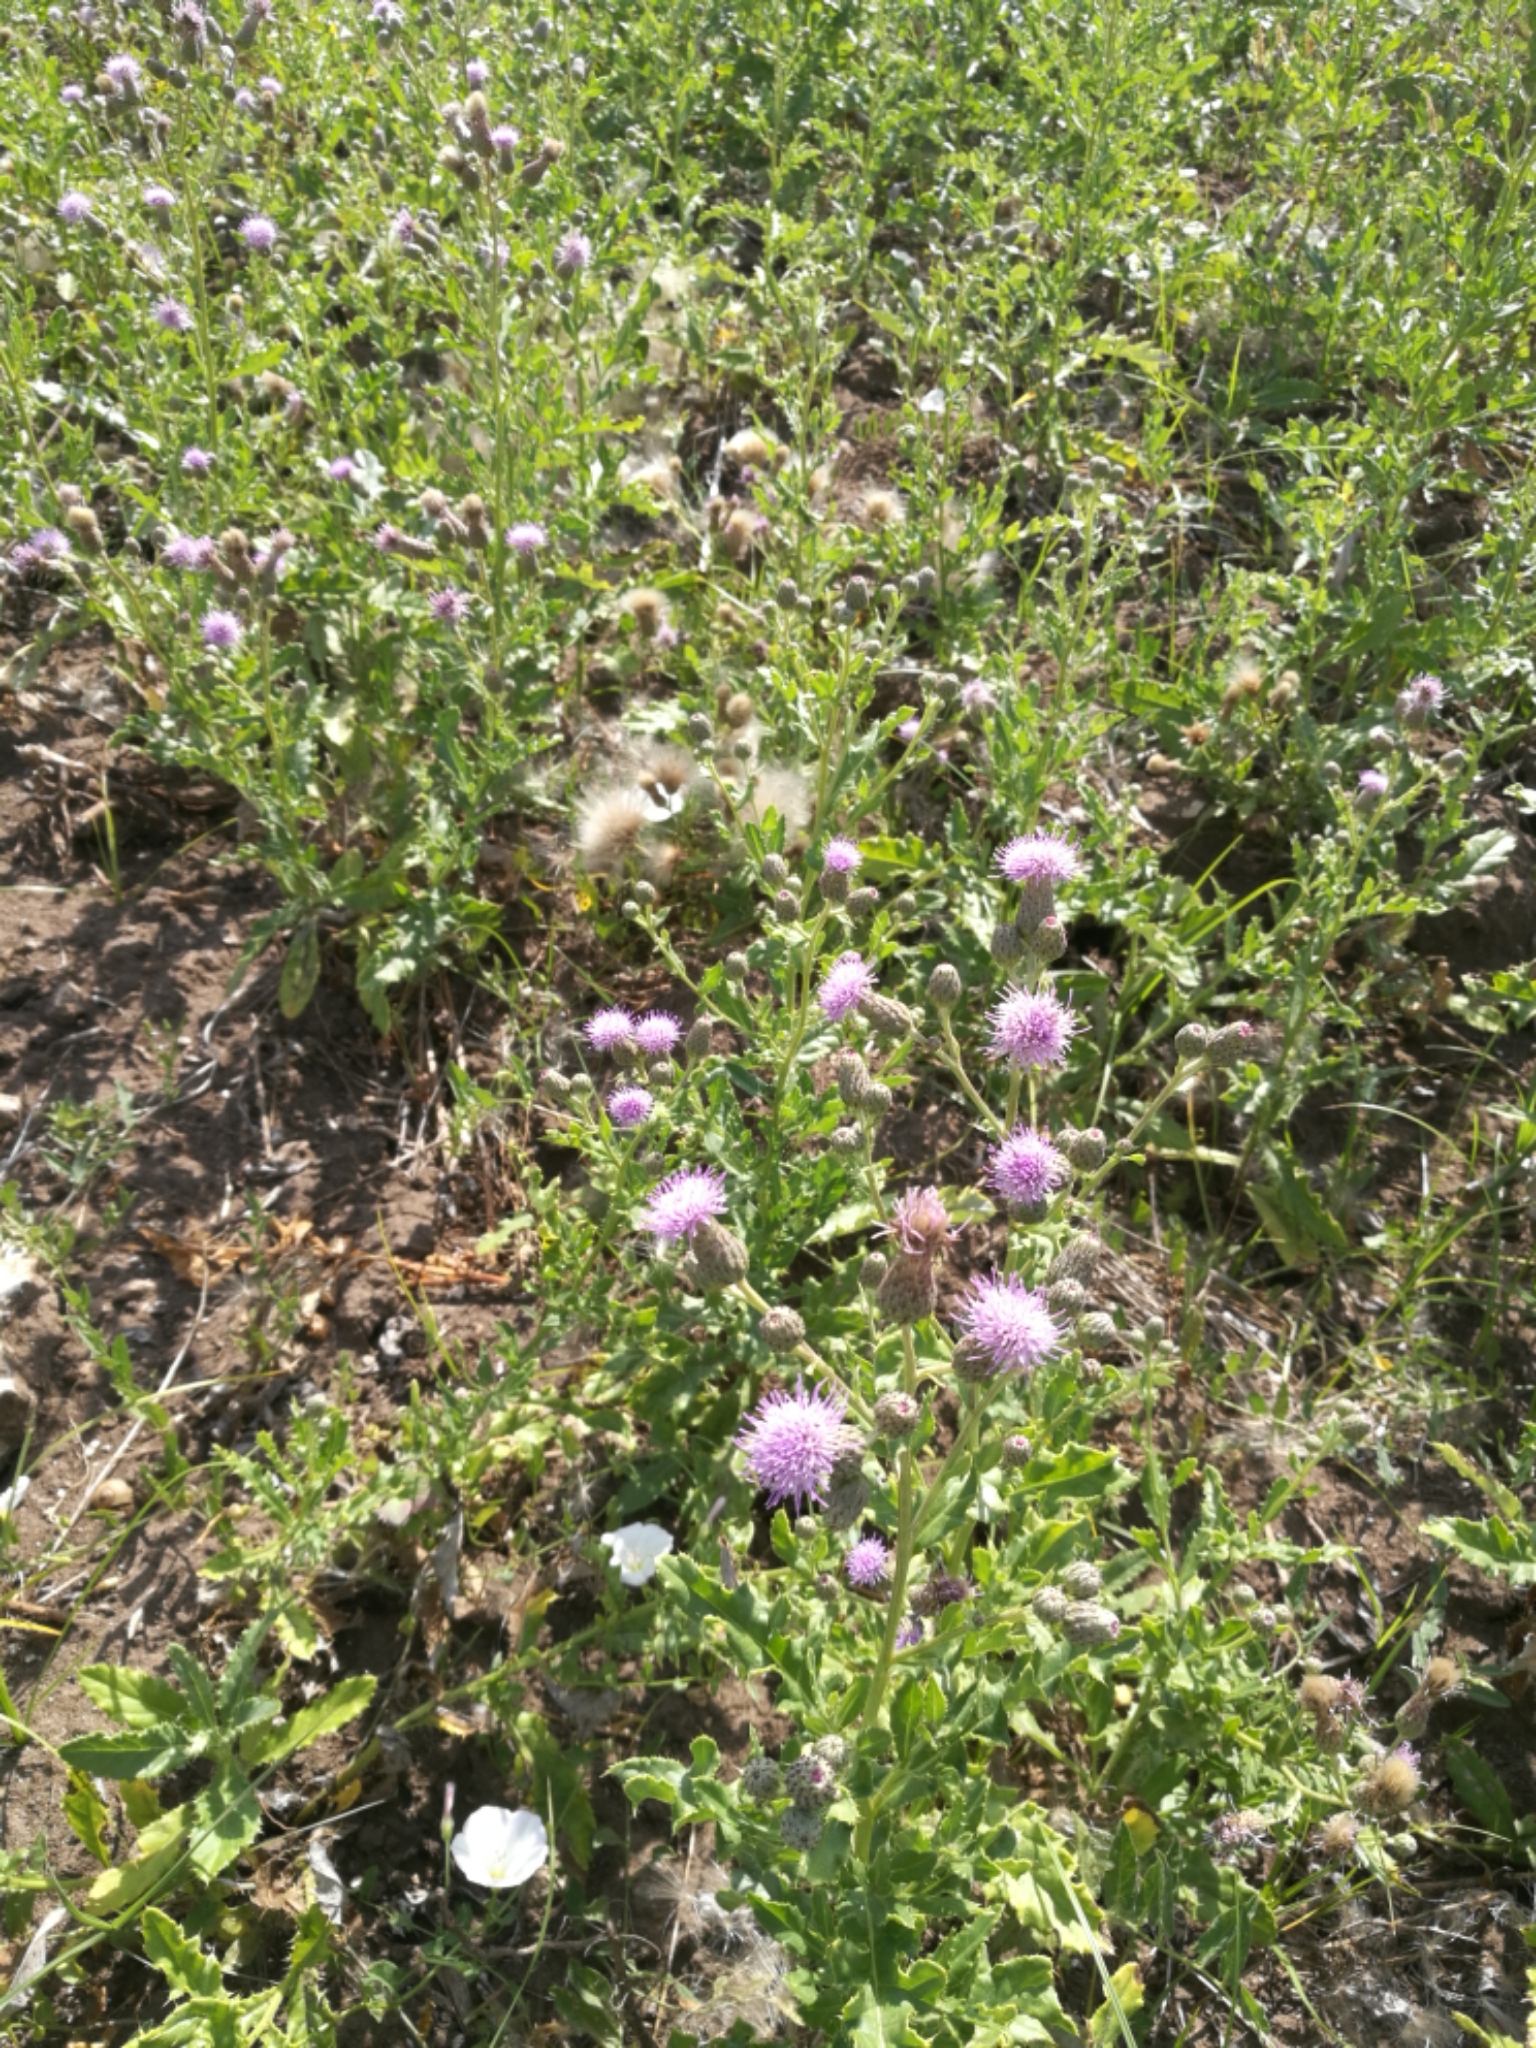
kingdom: Plantae
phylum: Tracheophyta
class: Magnoliopsida
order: Asterales
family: Asteraceae
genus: Cirsium
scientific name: Cirsium arvense
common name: Creeping thistle
